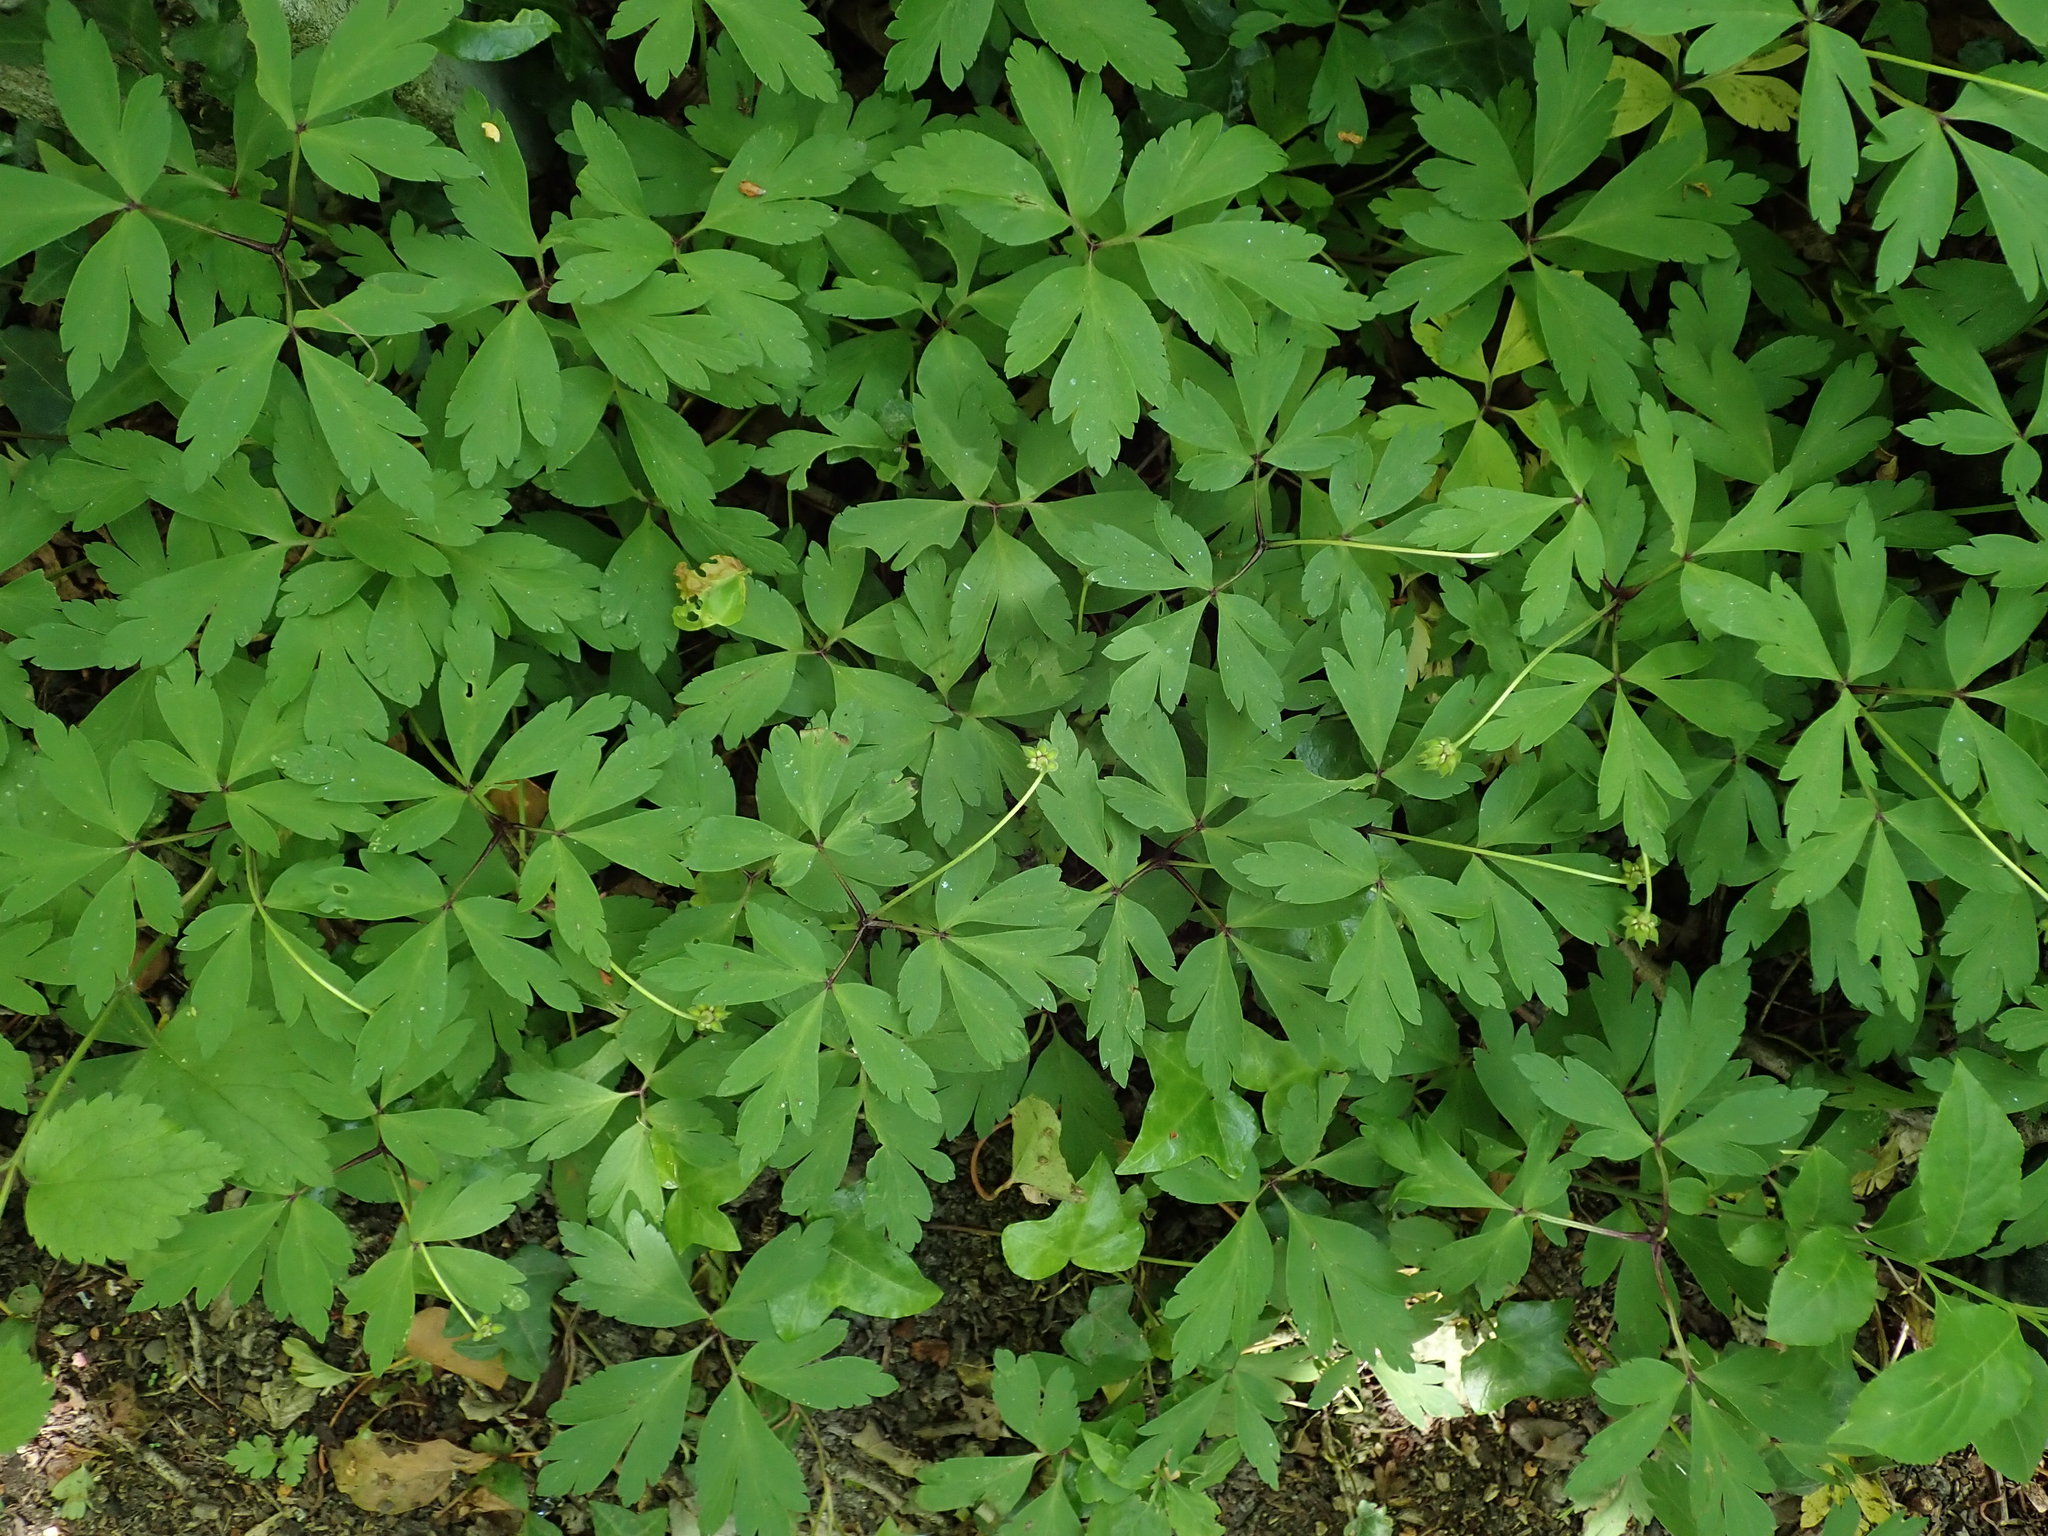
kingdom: Plantae
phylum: Tracheophyta
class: Magnoliopsida
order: Ranunculales
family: Ranunculaceae
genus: Anemone
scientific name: Anemone nemorosa
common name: Wood anemone
